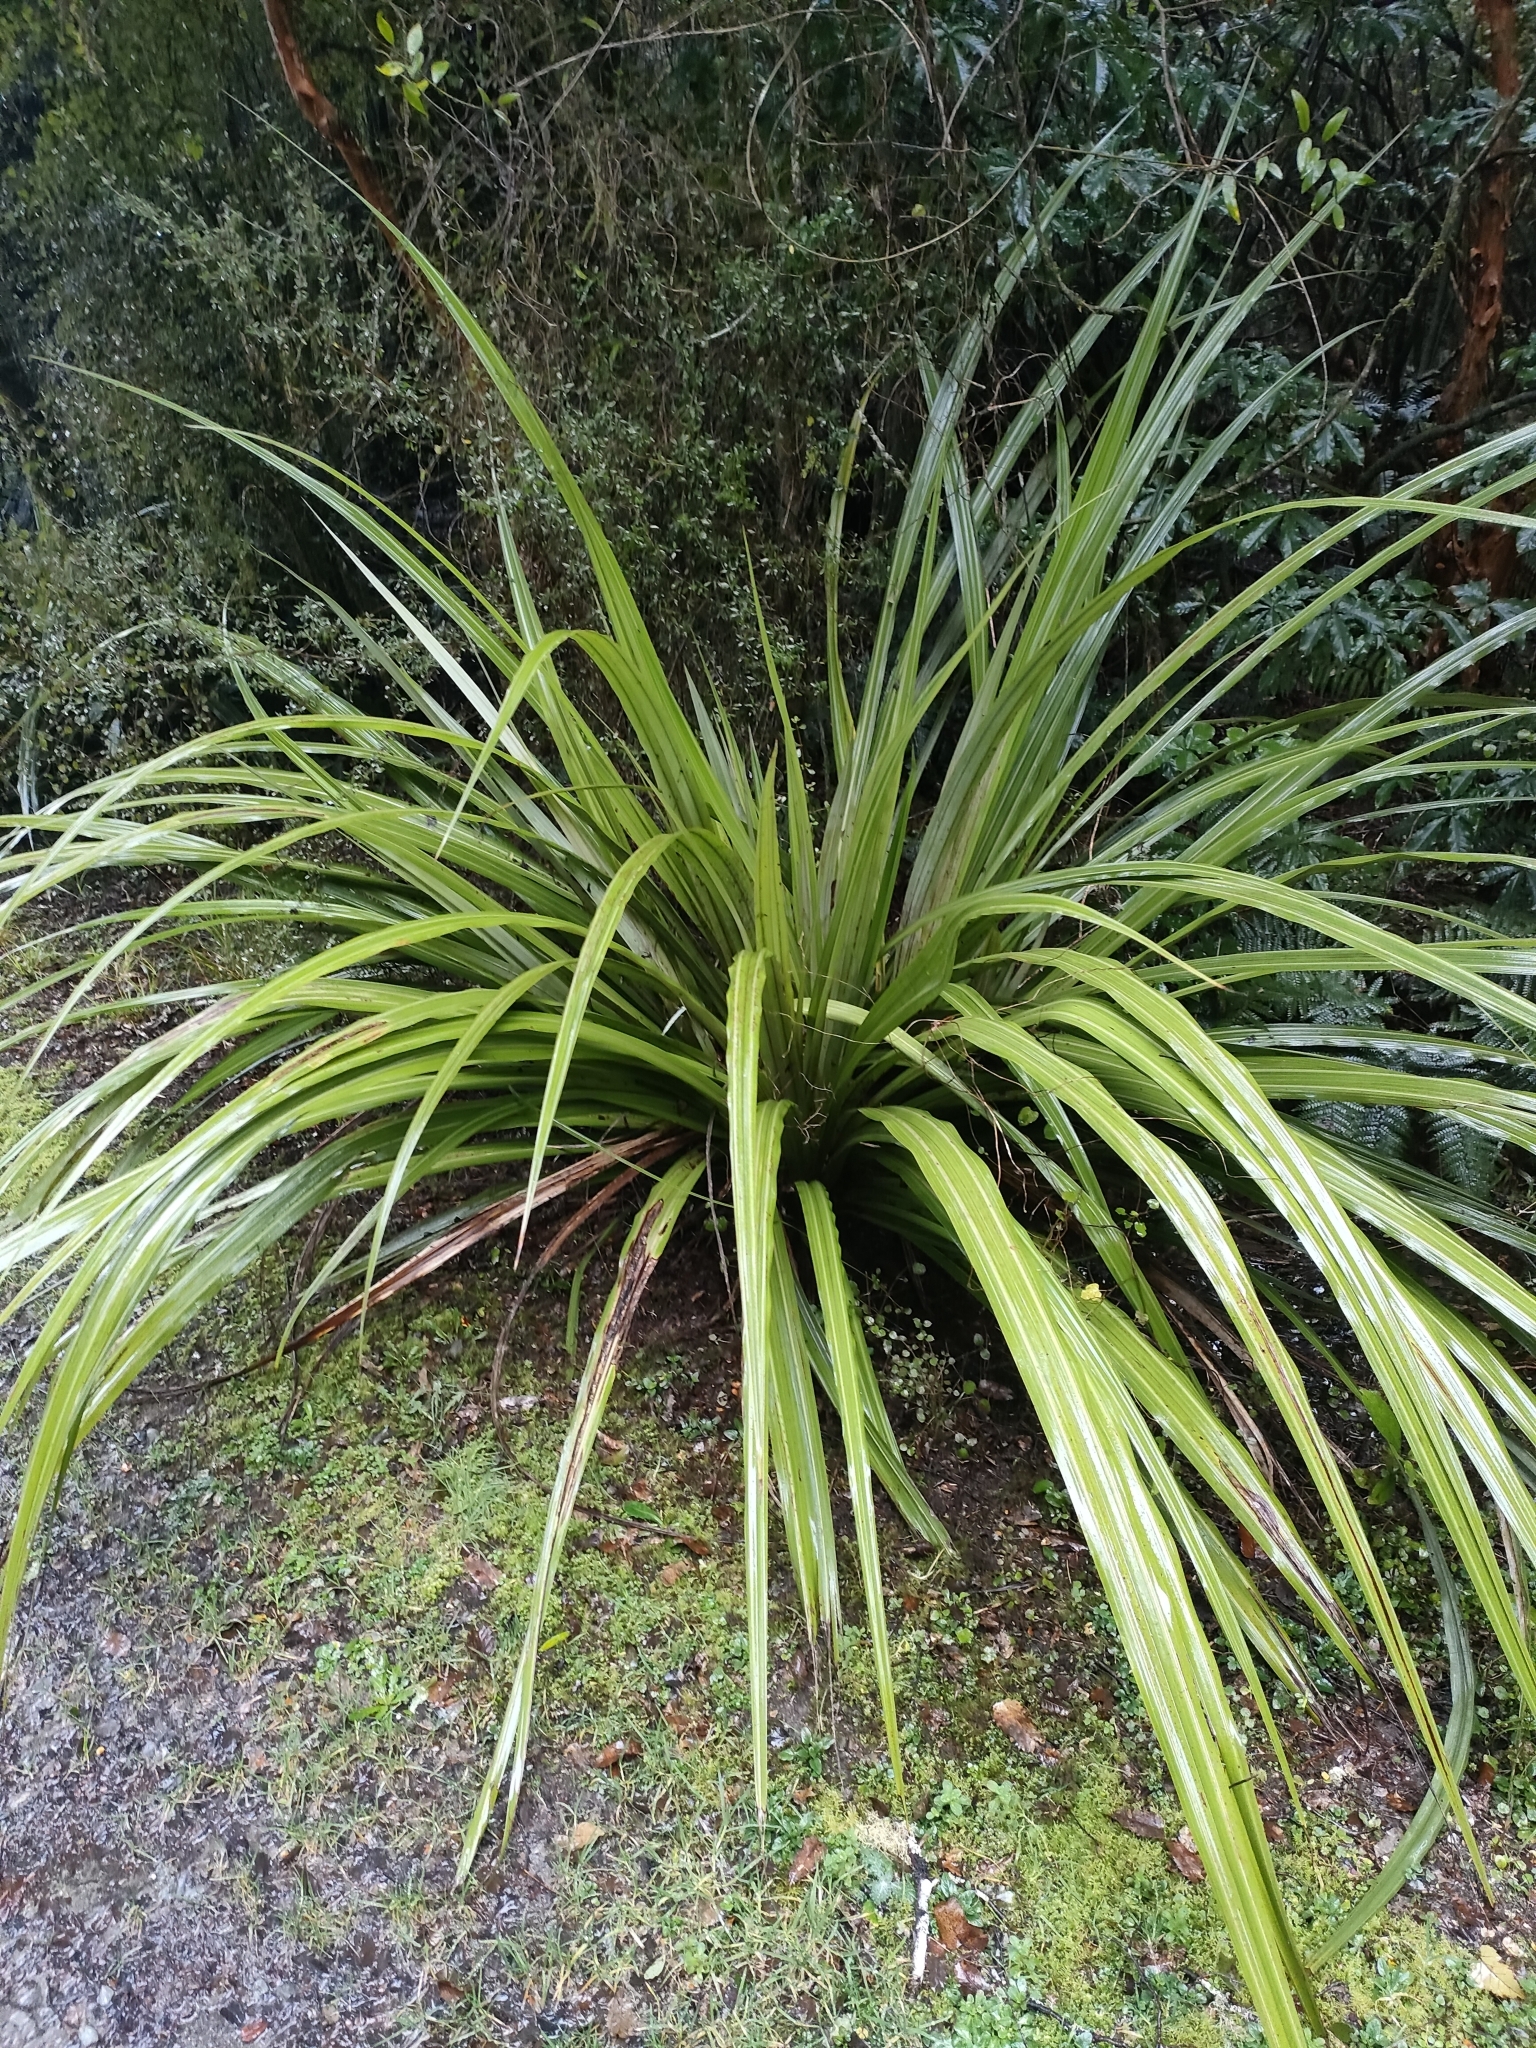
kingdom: Plantae
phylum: Tracheophyta
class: Liliopsida
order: Asparagales
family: Asteliaceae
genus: Astelia
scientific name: Astelia fragrans
